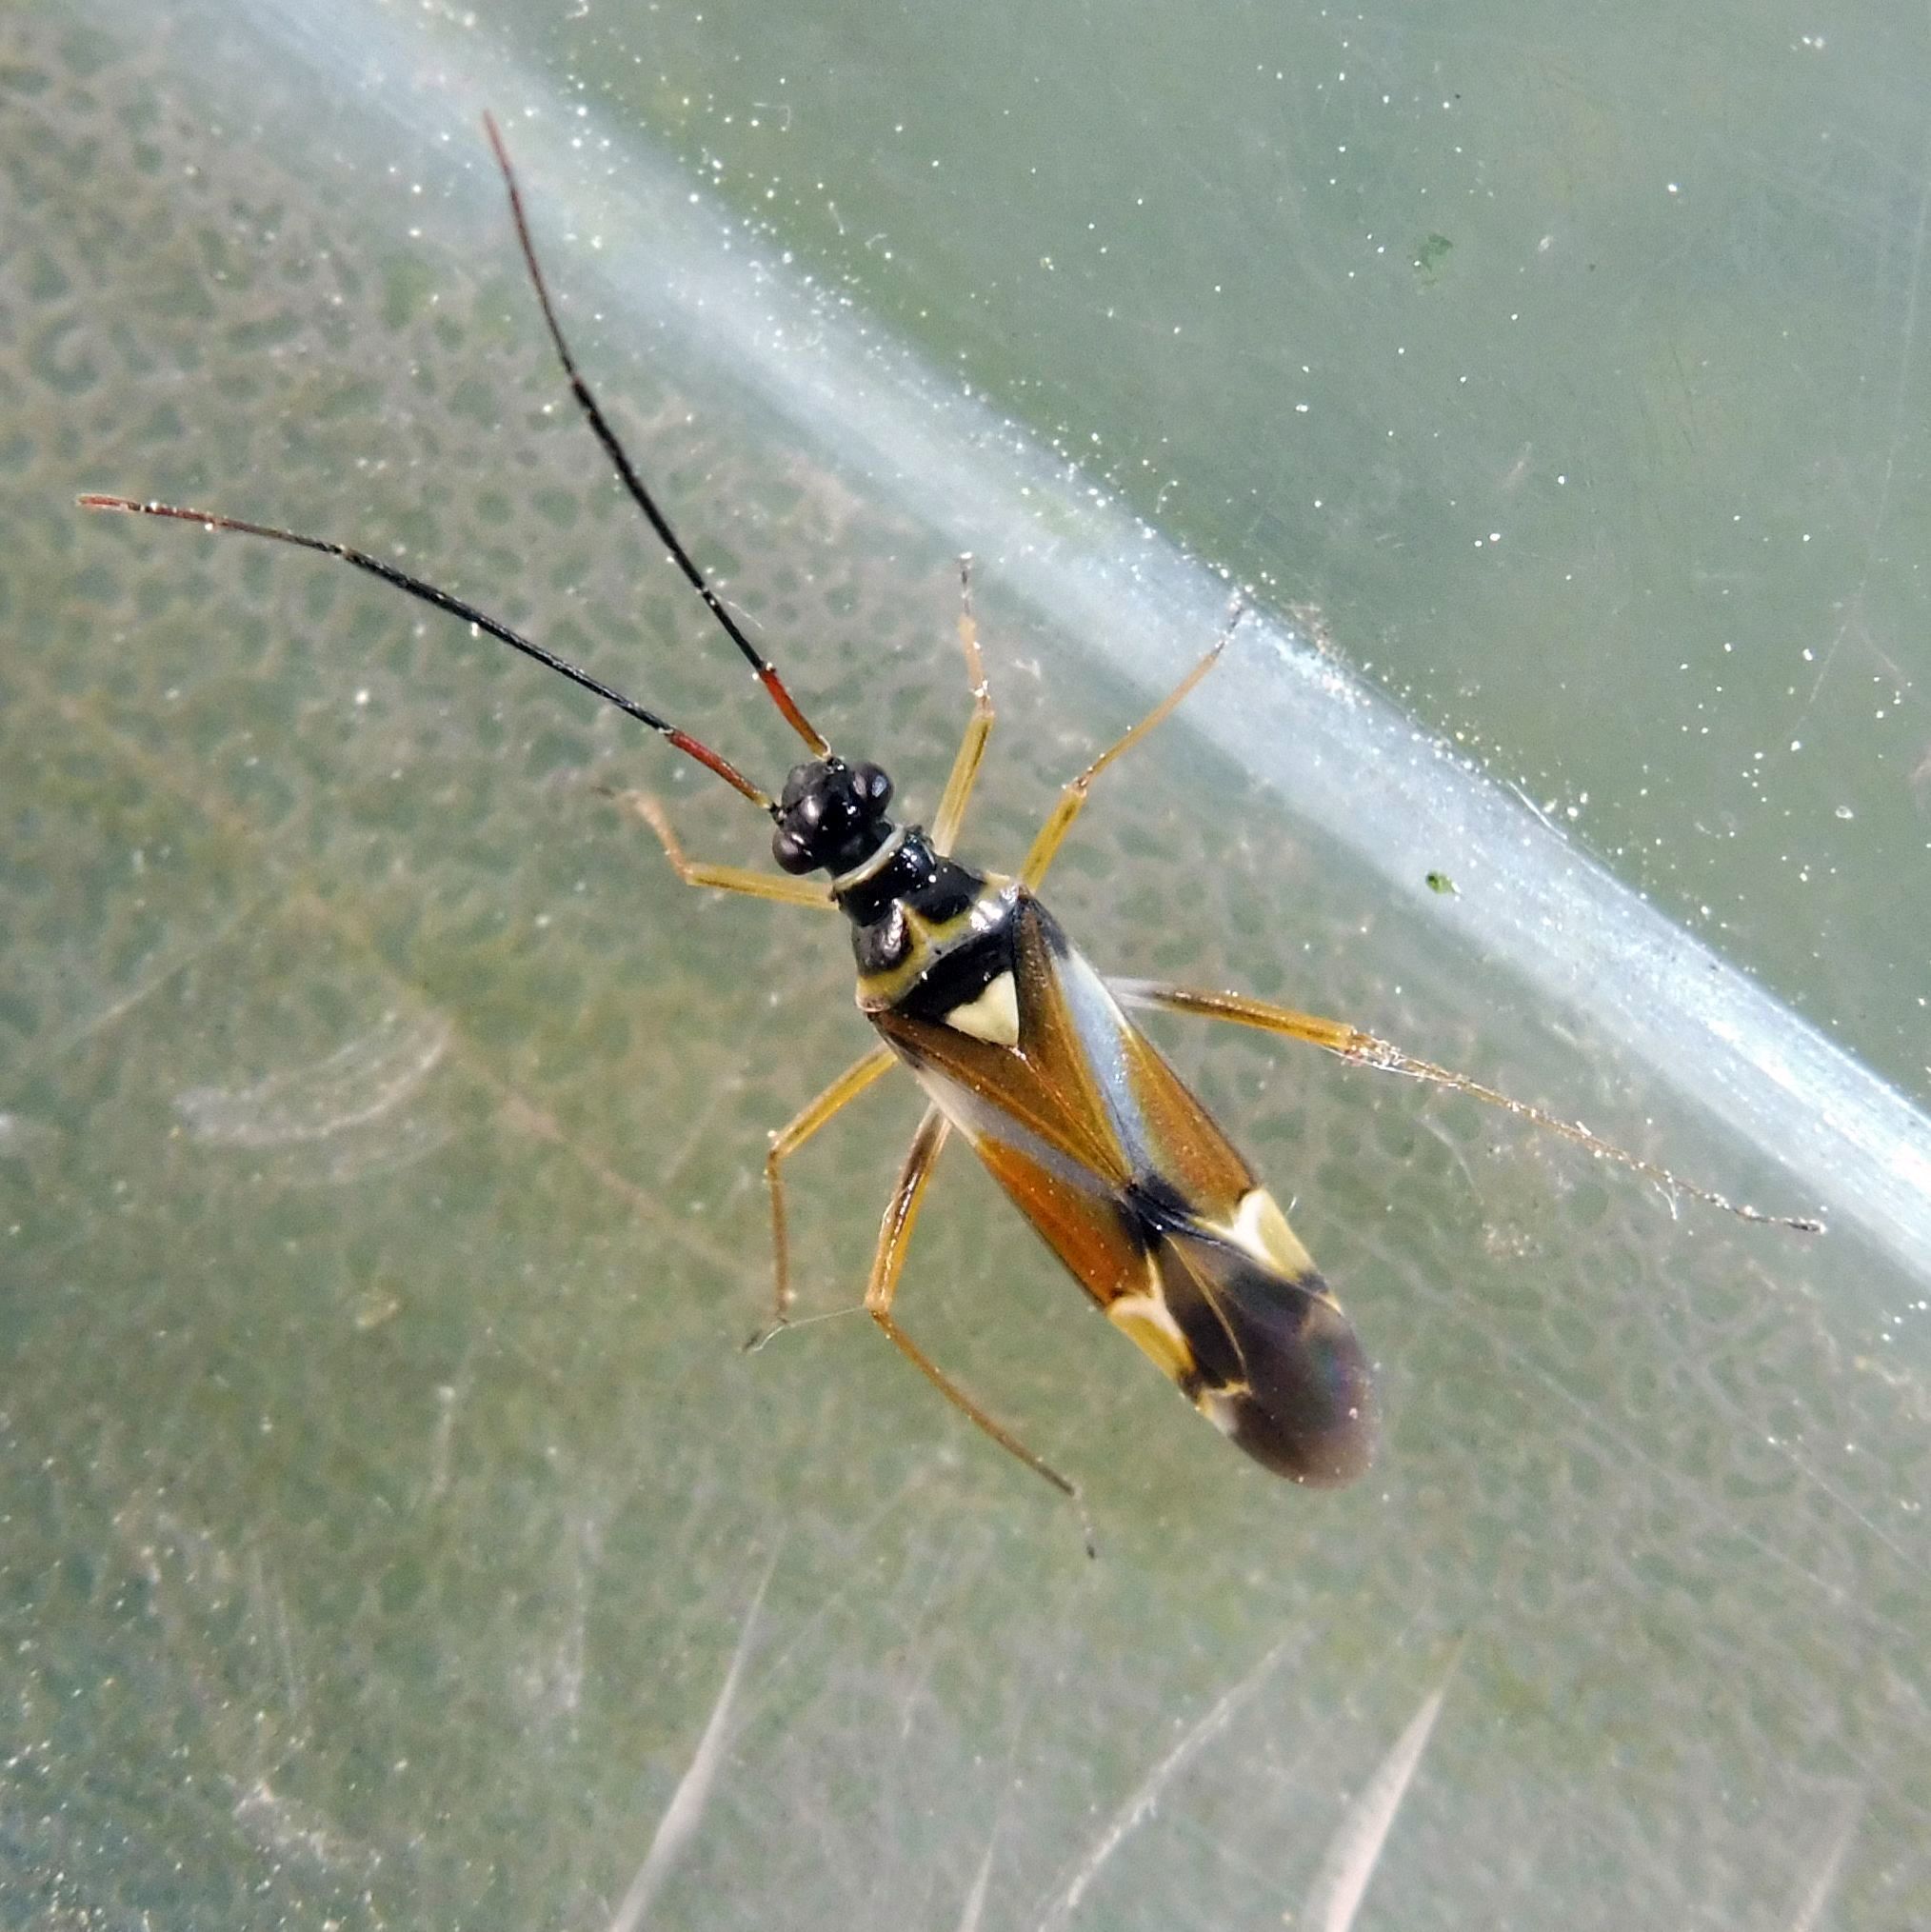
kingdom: Animalia
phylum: Arthropoda
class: Insecta
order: Hemiptera
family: Miridae
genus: Cyllecoris
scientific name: Cyllecoris histrionius
